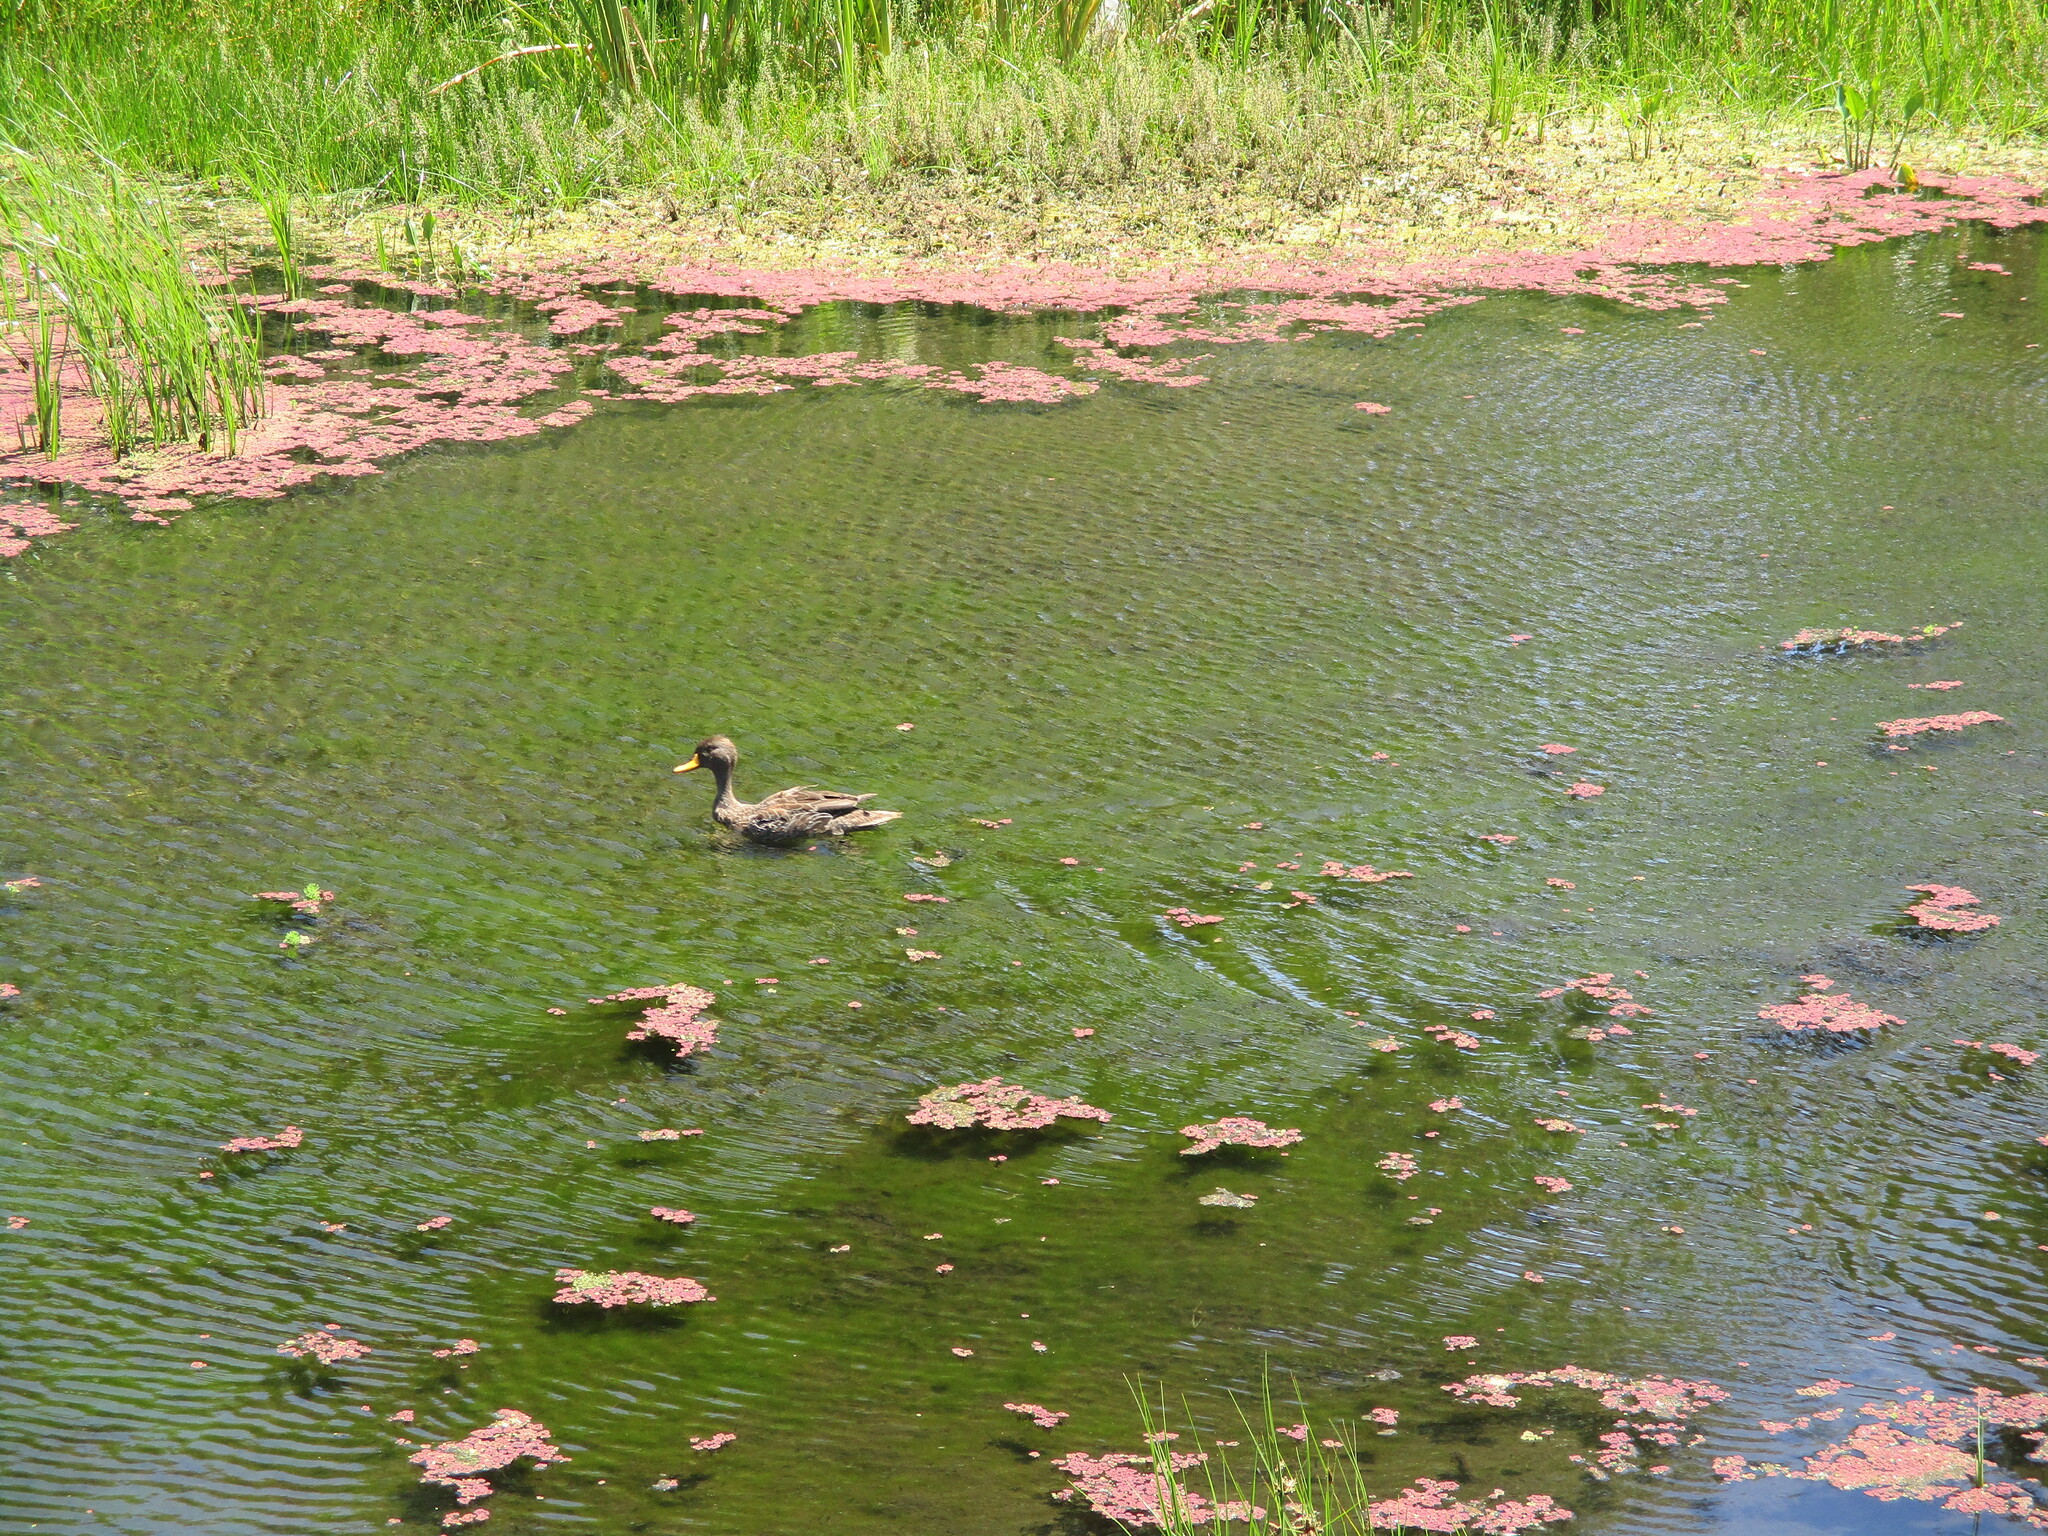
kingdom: Animalia
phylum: Chordata
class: Aves
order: Anseriformes
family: Anatidae
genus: Anas
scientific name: Anas undulata
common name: Yellow-billed duck
